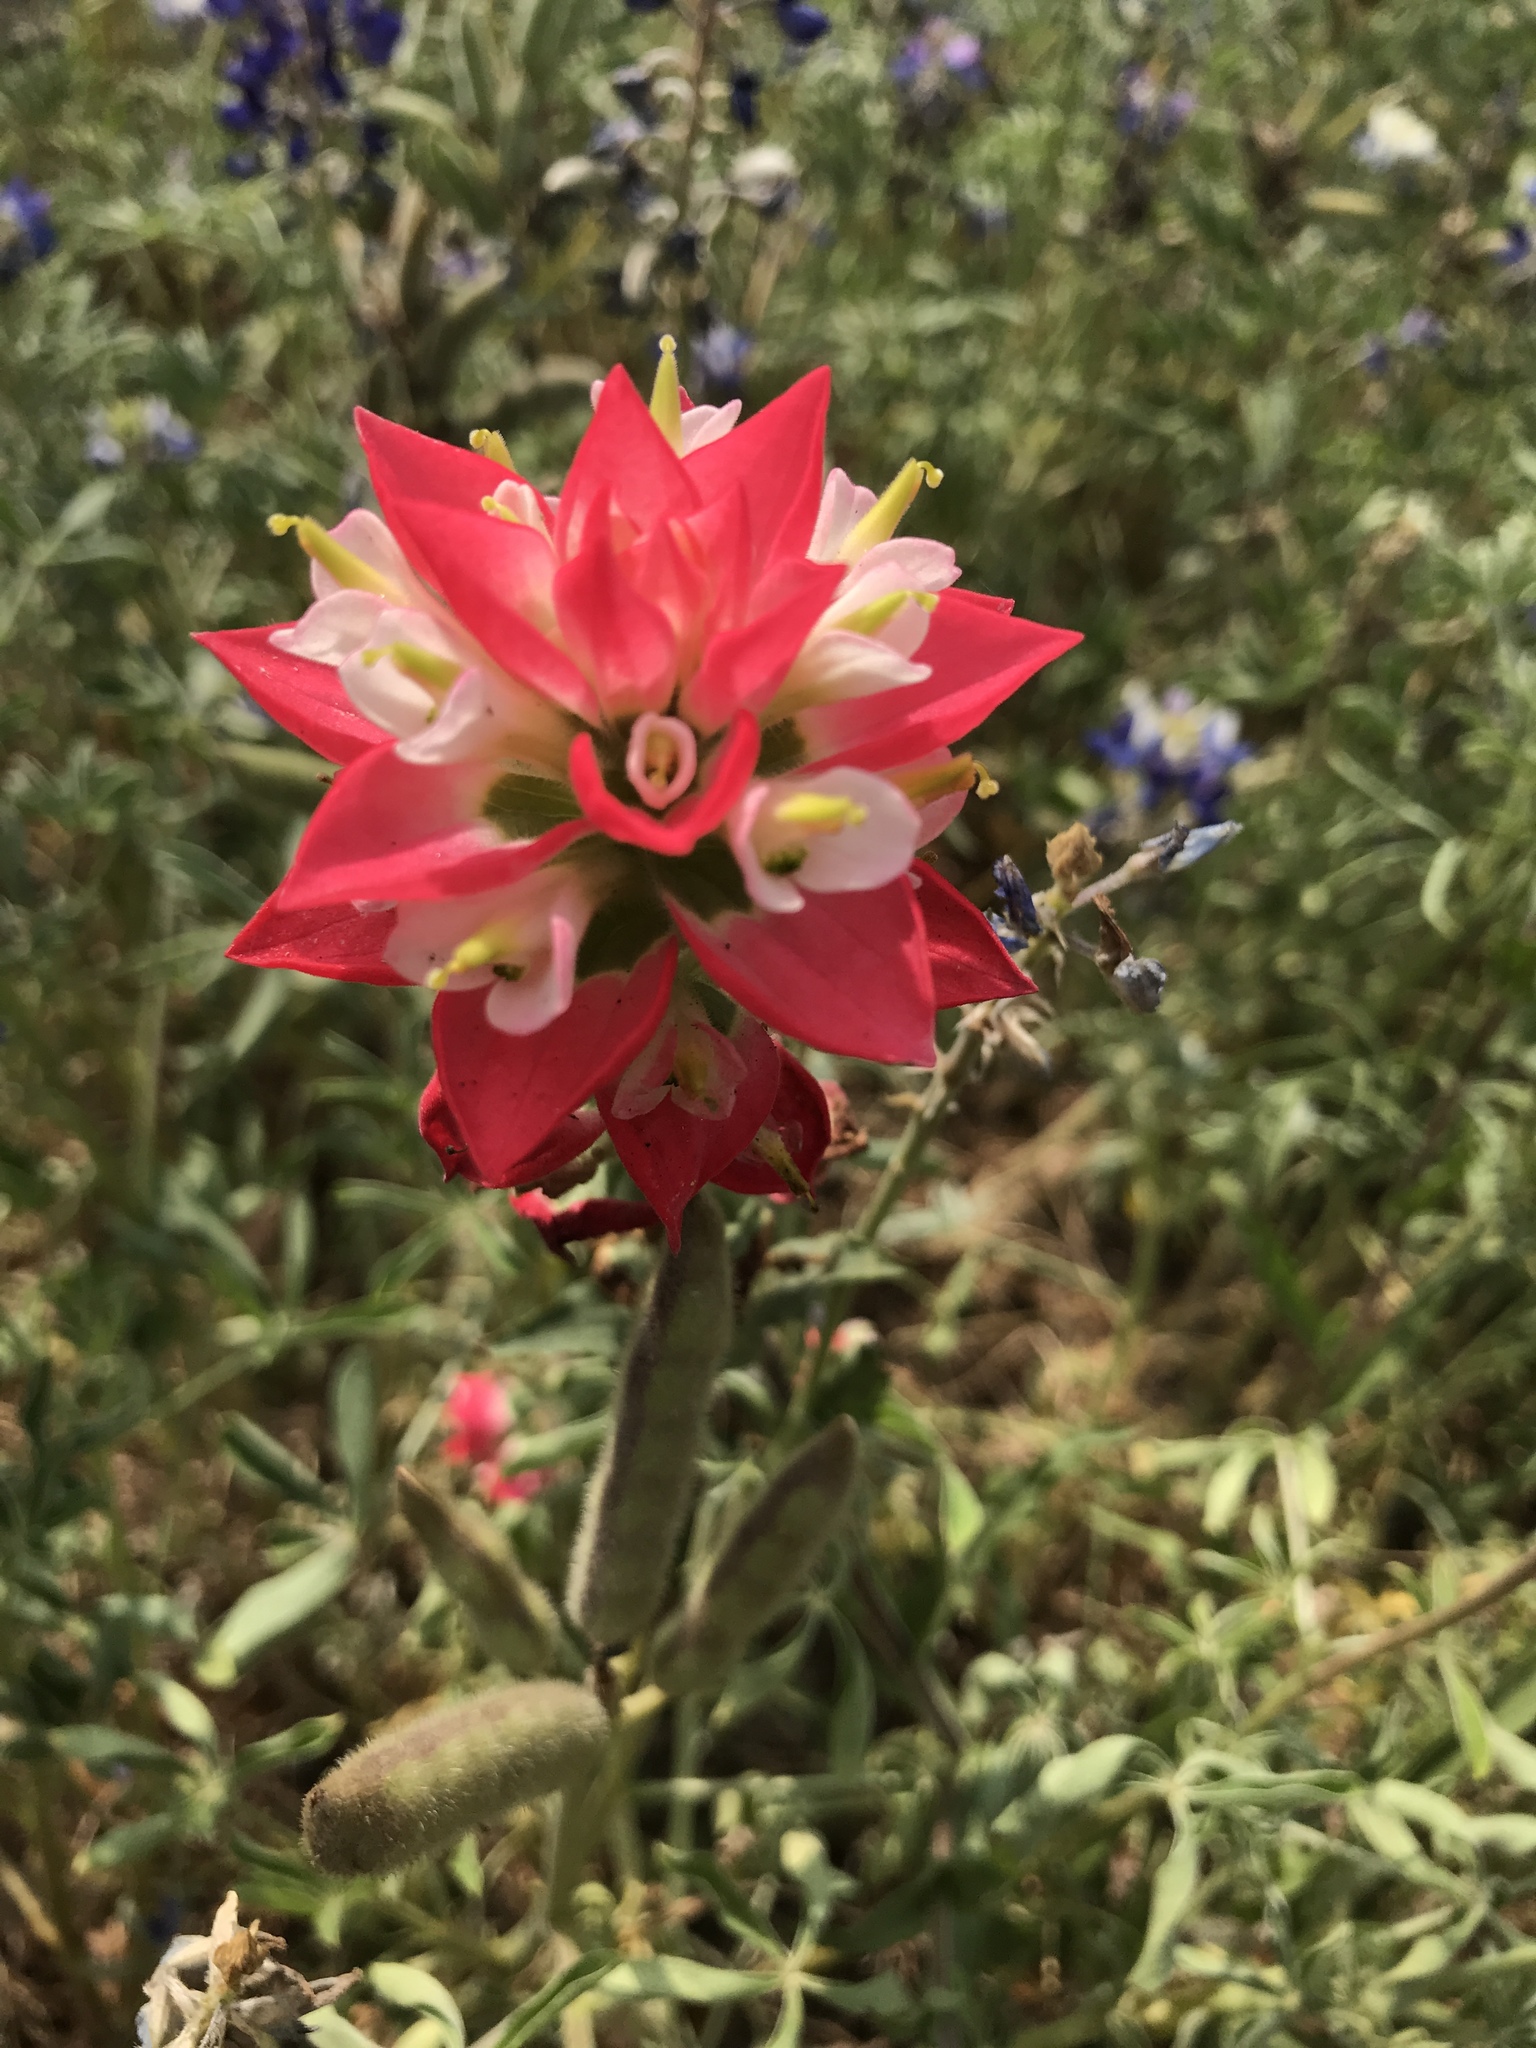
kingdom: Plantae
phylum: Tracheophyta
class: Magnoliopsida
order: Lamiales
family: Orobanchaceae
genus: Castilleja
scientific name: Castilleja indivisa
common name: Texas paintbrush
